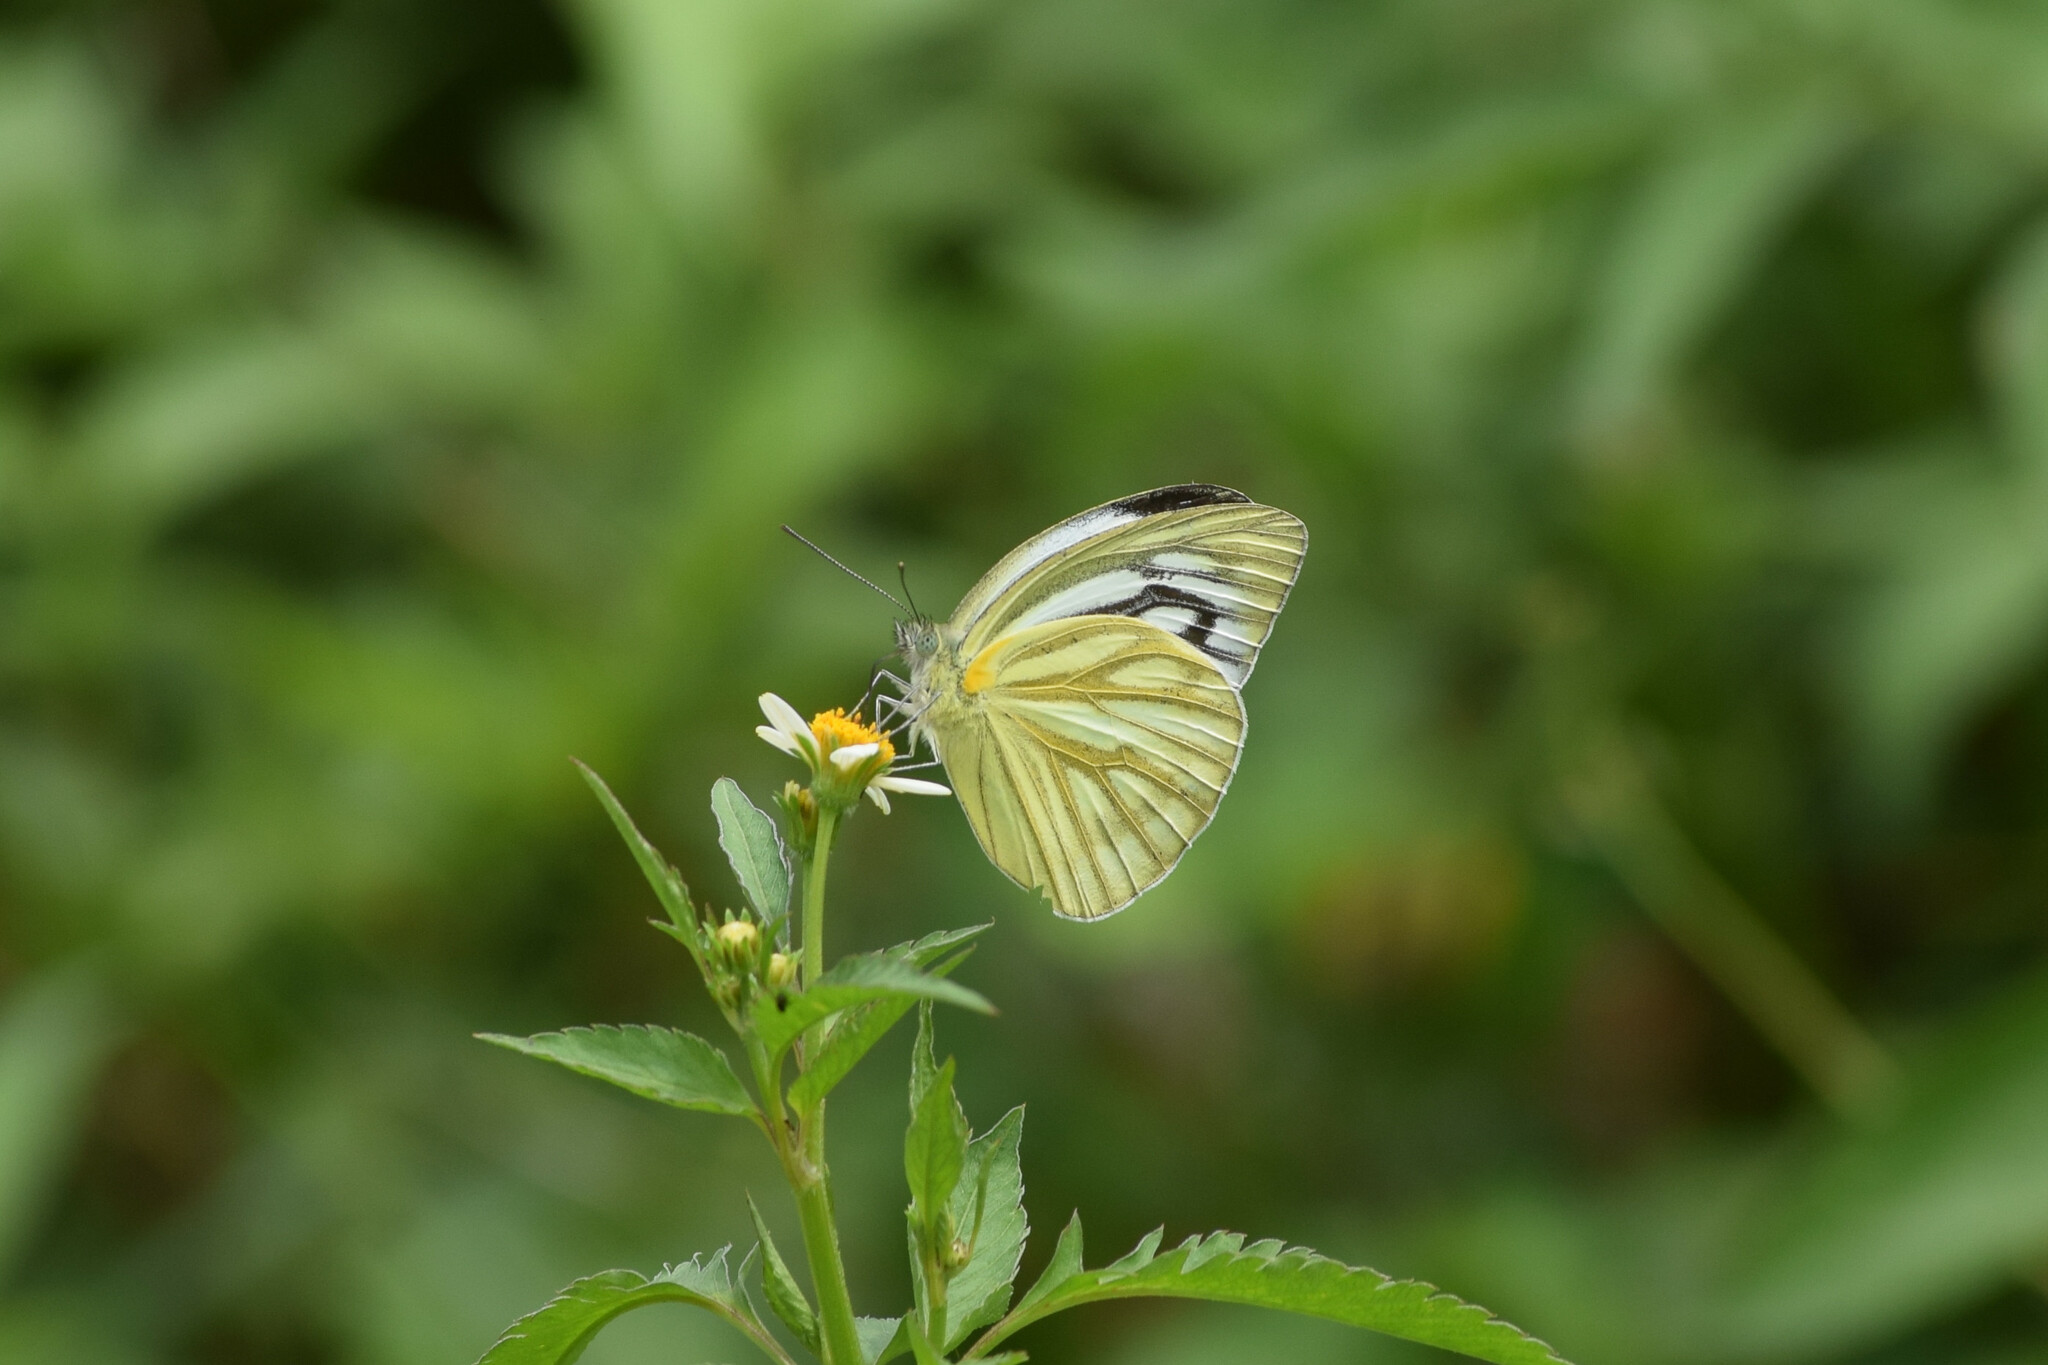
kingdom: Animalia
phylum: Arthropoda
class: Insecta
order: Lepidoptera
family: Pieridae
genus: Cepora
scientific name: Cepora nerissa
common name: Common gull
